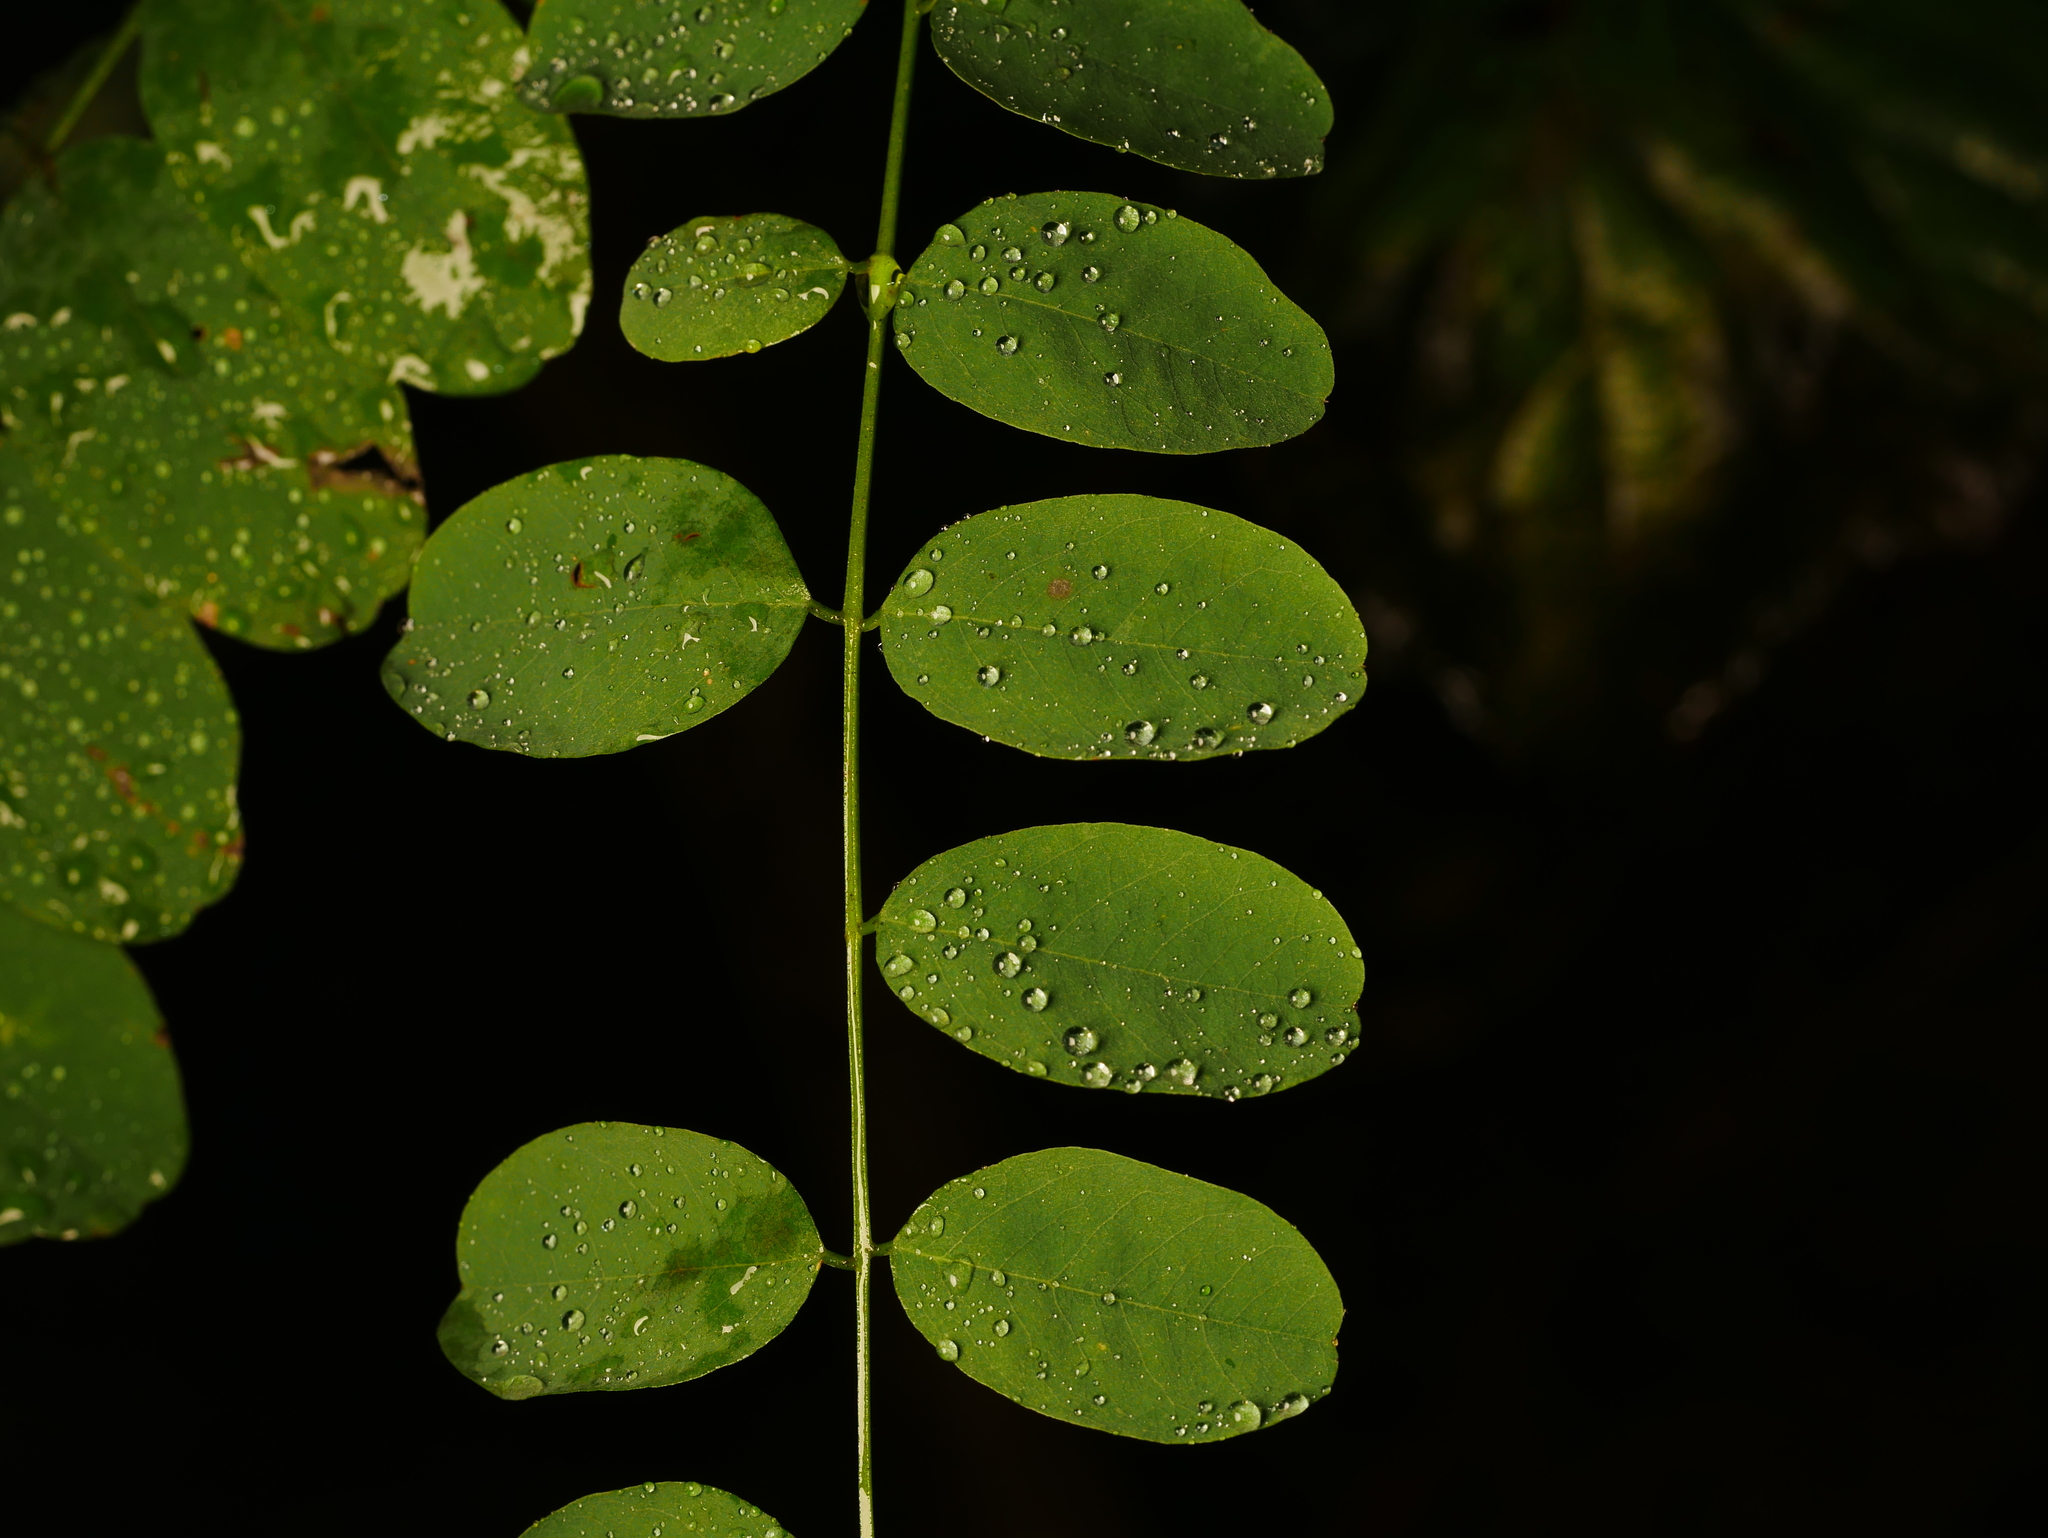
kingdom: Plantae
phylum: Tracheophyta
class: Magnoliopsida
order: Fabales
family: Fabaceae
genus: Robinia
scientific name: Robinia pseudoacacia
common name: Black locust
